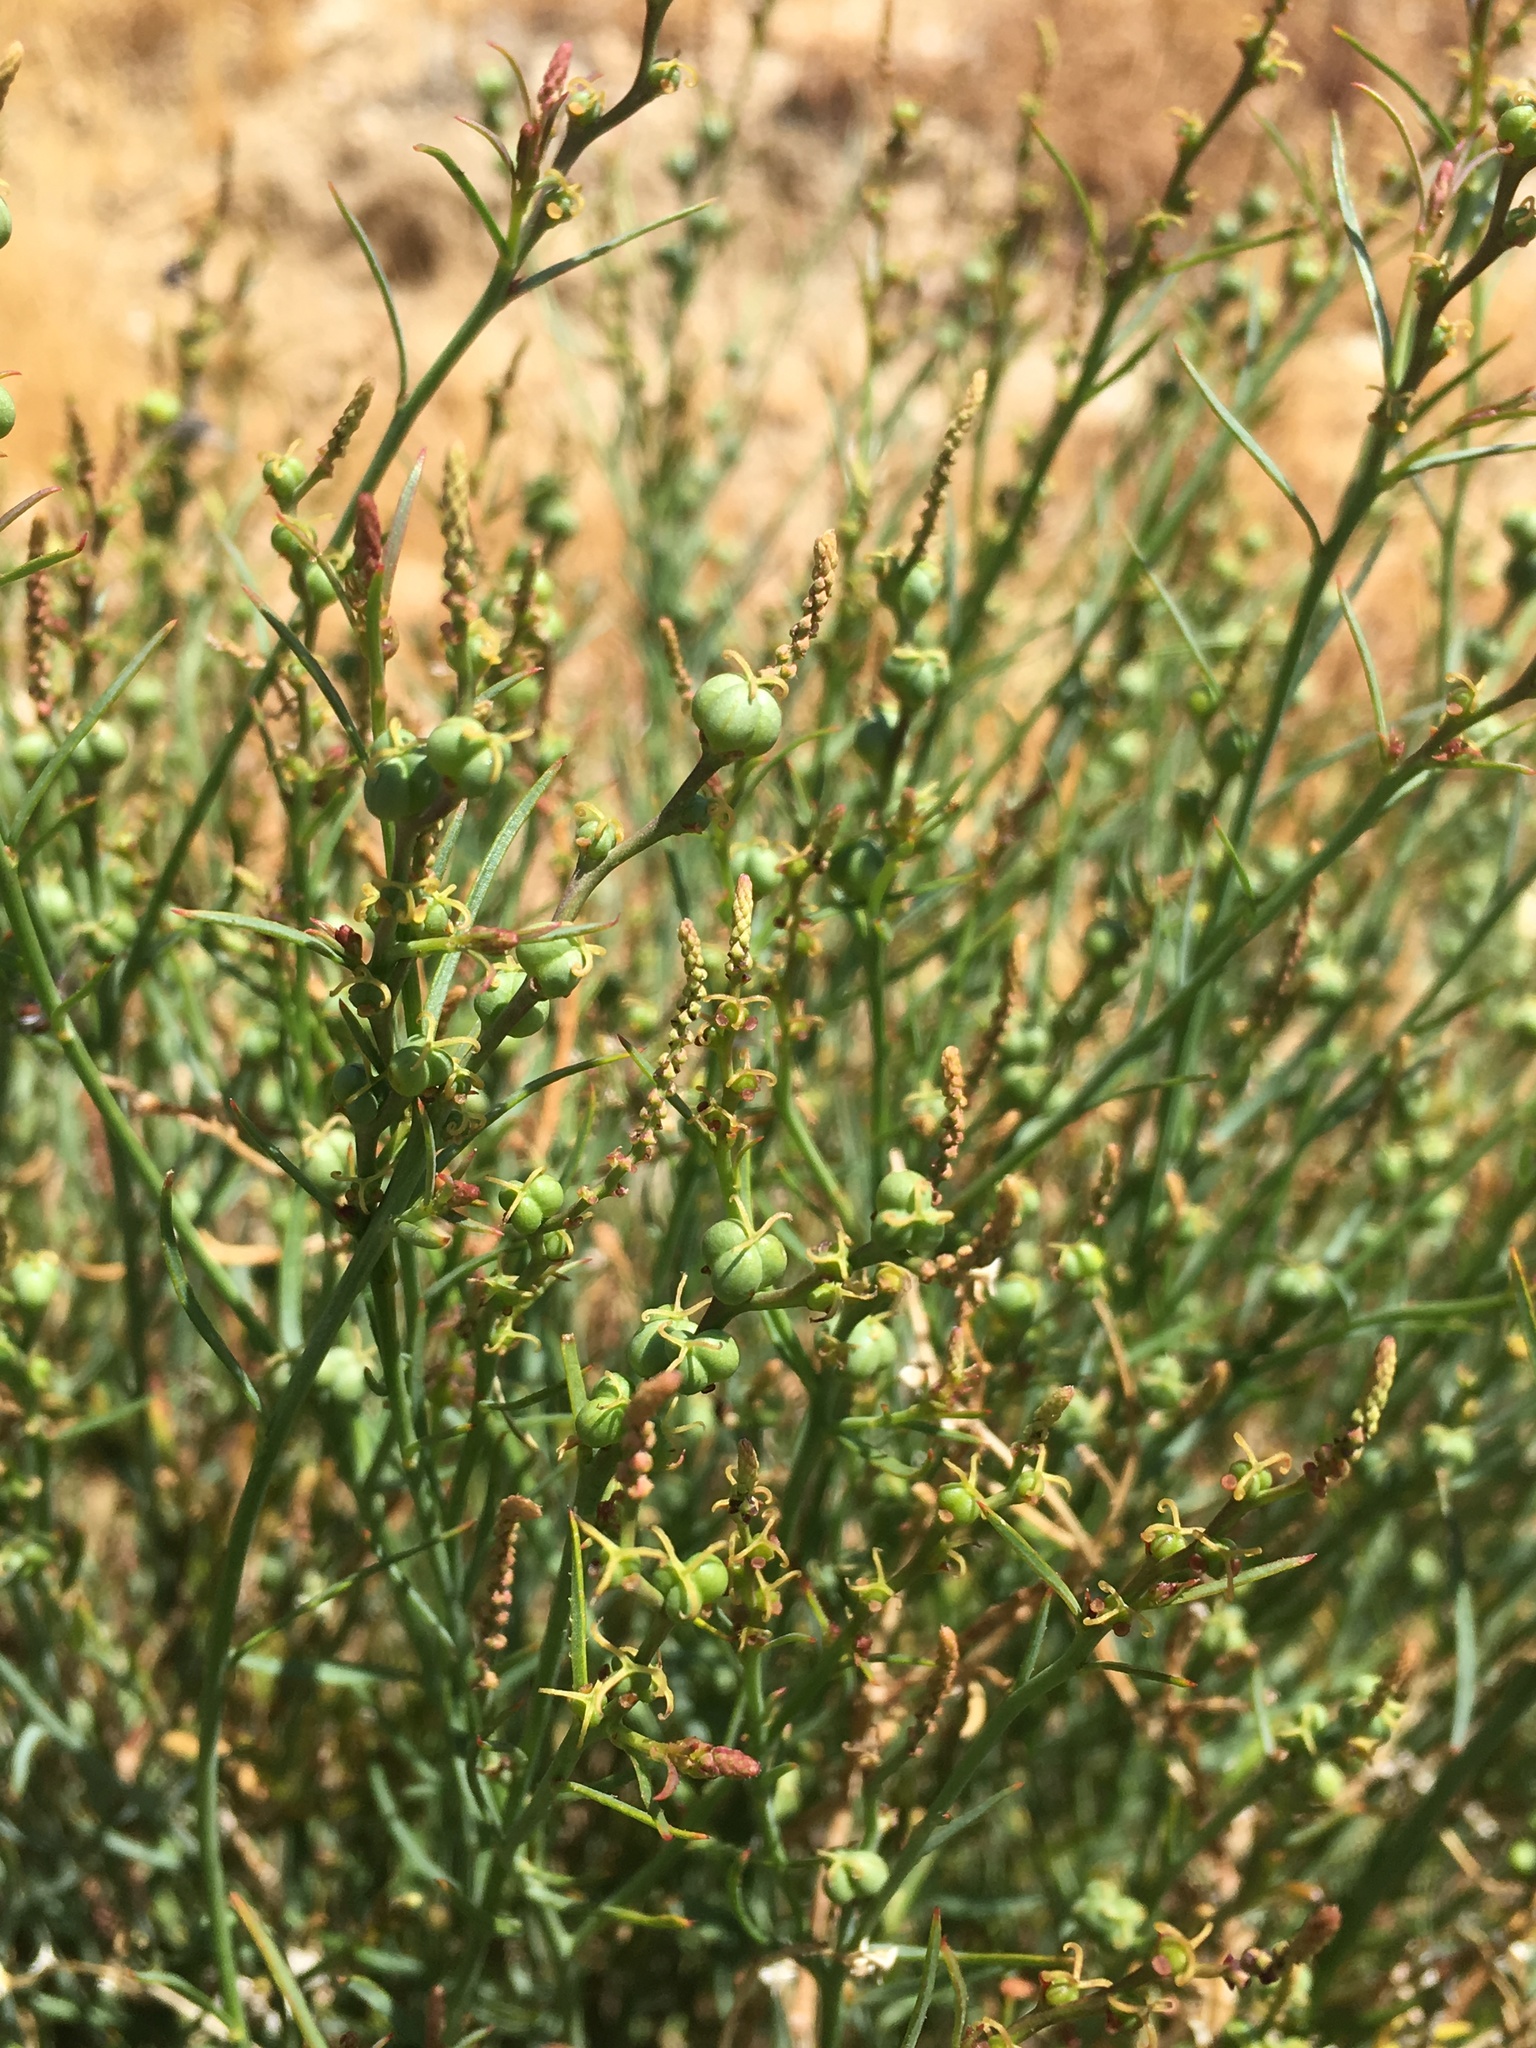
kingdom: Plantae
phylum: Tracheophyta
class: Magnoliopsida
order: Malpighiales
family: Euphorbiaceae
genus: Stillingia
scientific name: Stillingia linearifolia
